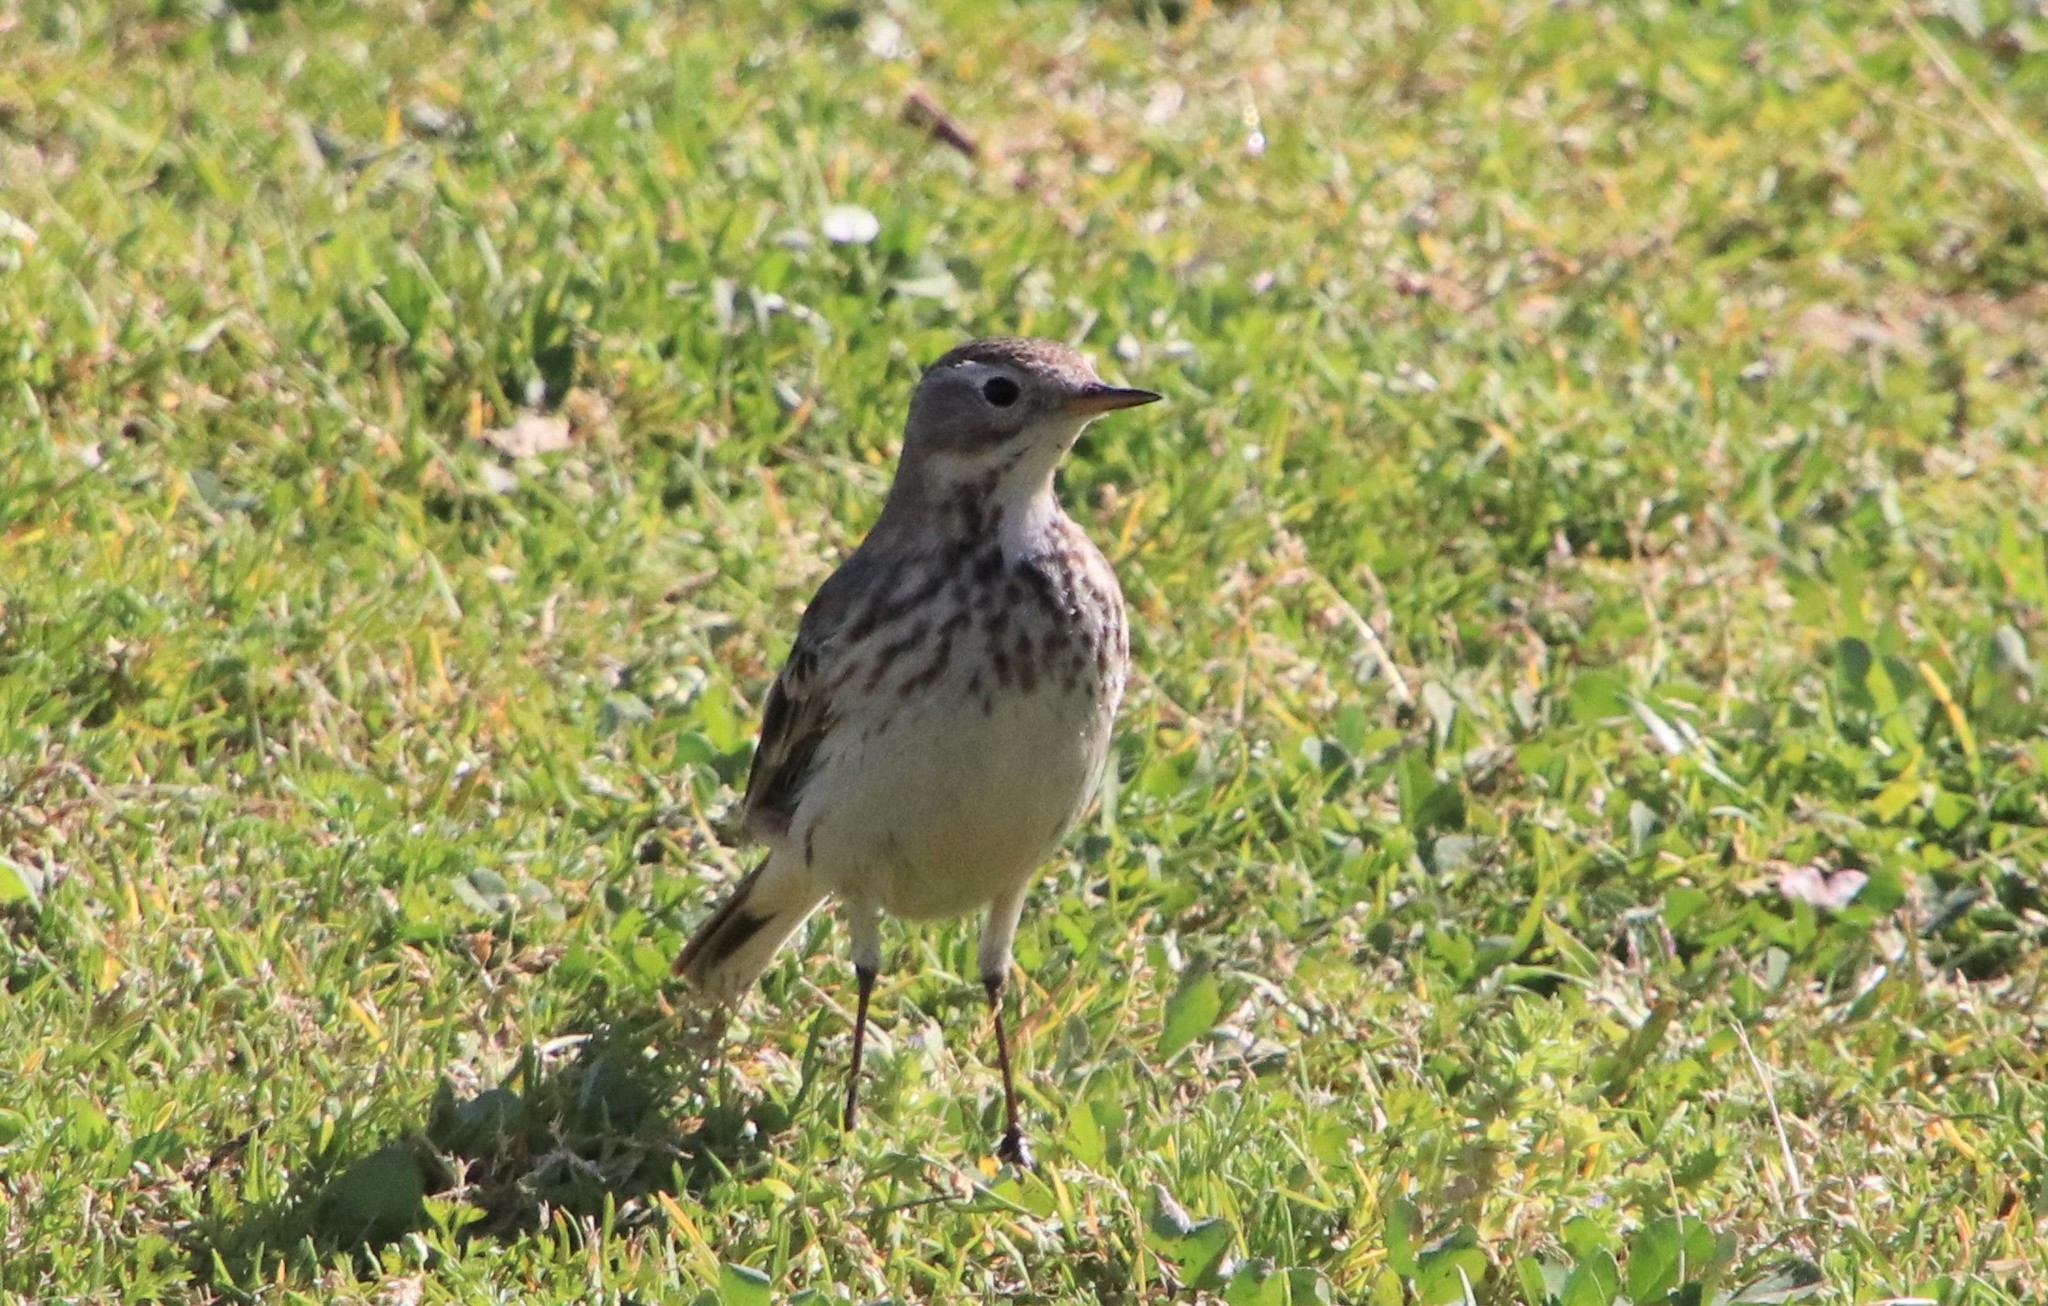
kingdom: Animalia
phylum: Chordata
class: Aves
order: Passeriformes
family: Motacillidae
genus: Anthus
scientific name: Anthus rubescens
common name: Buff-bellied pipit
